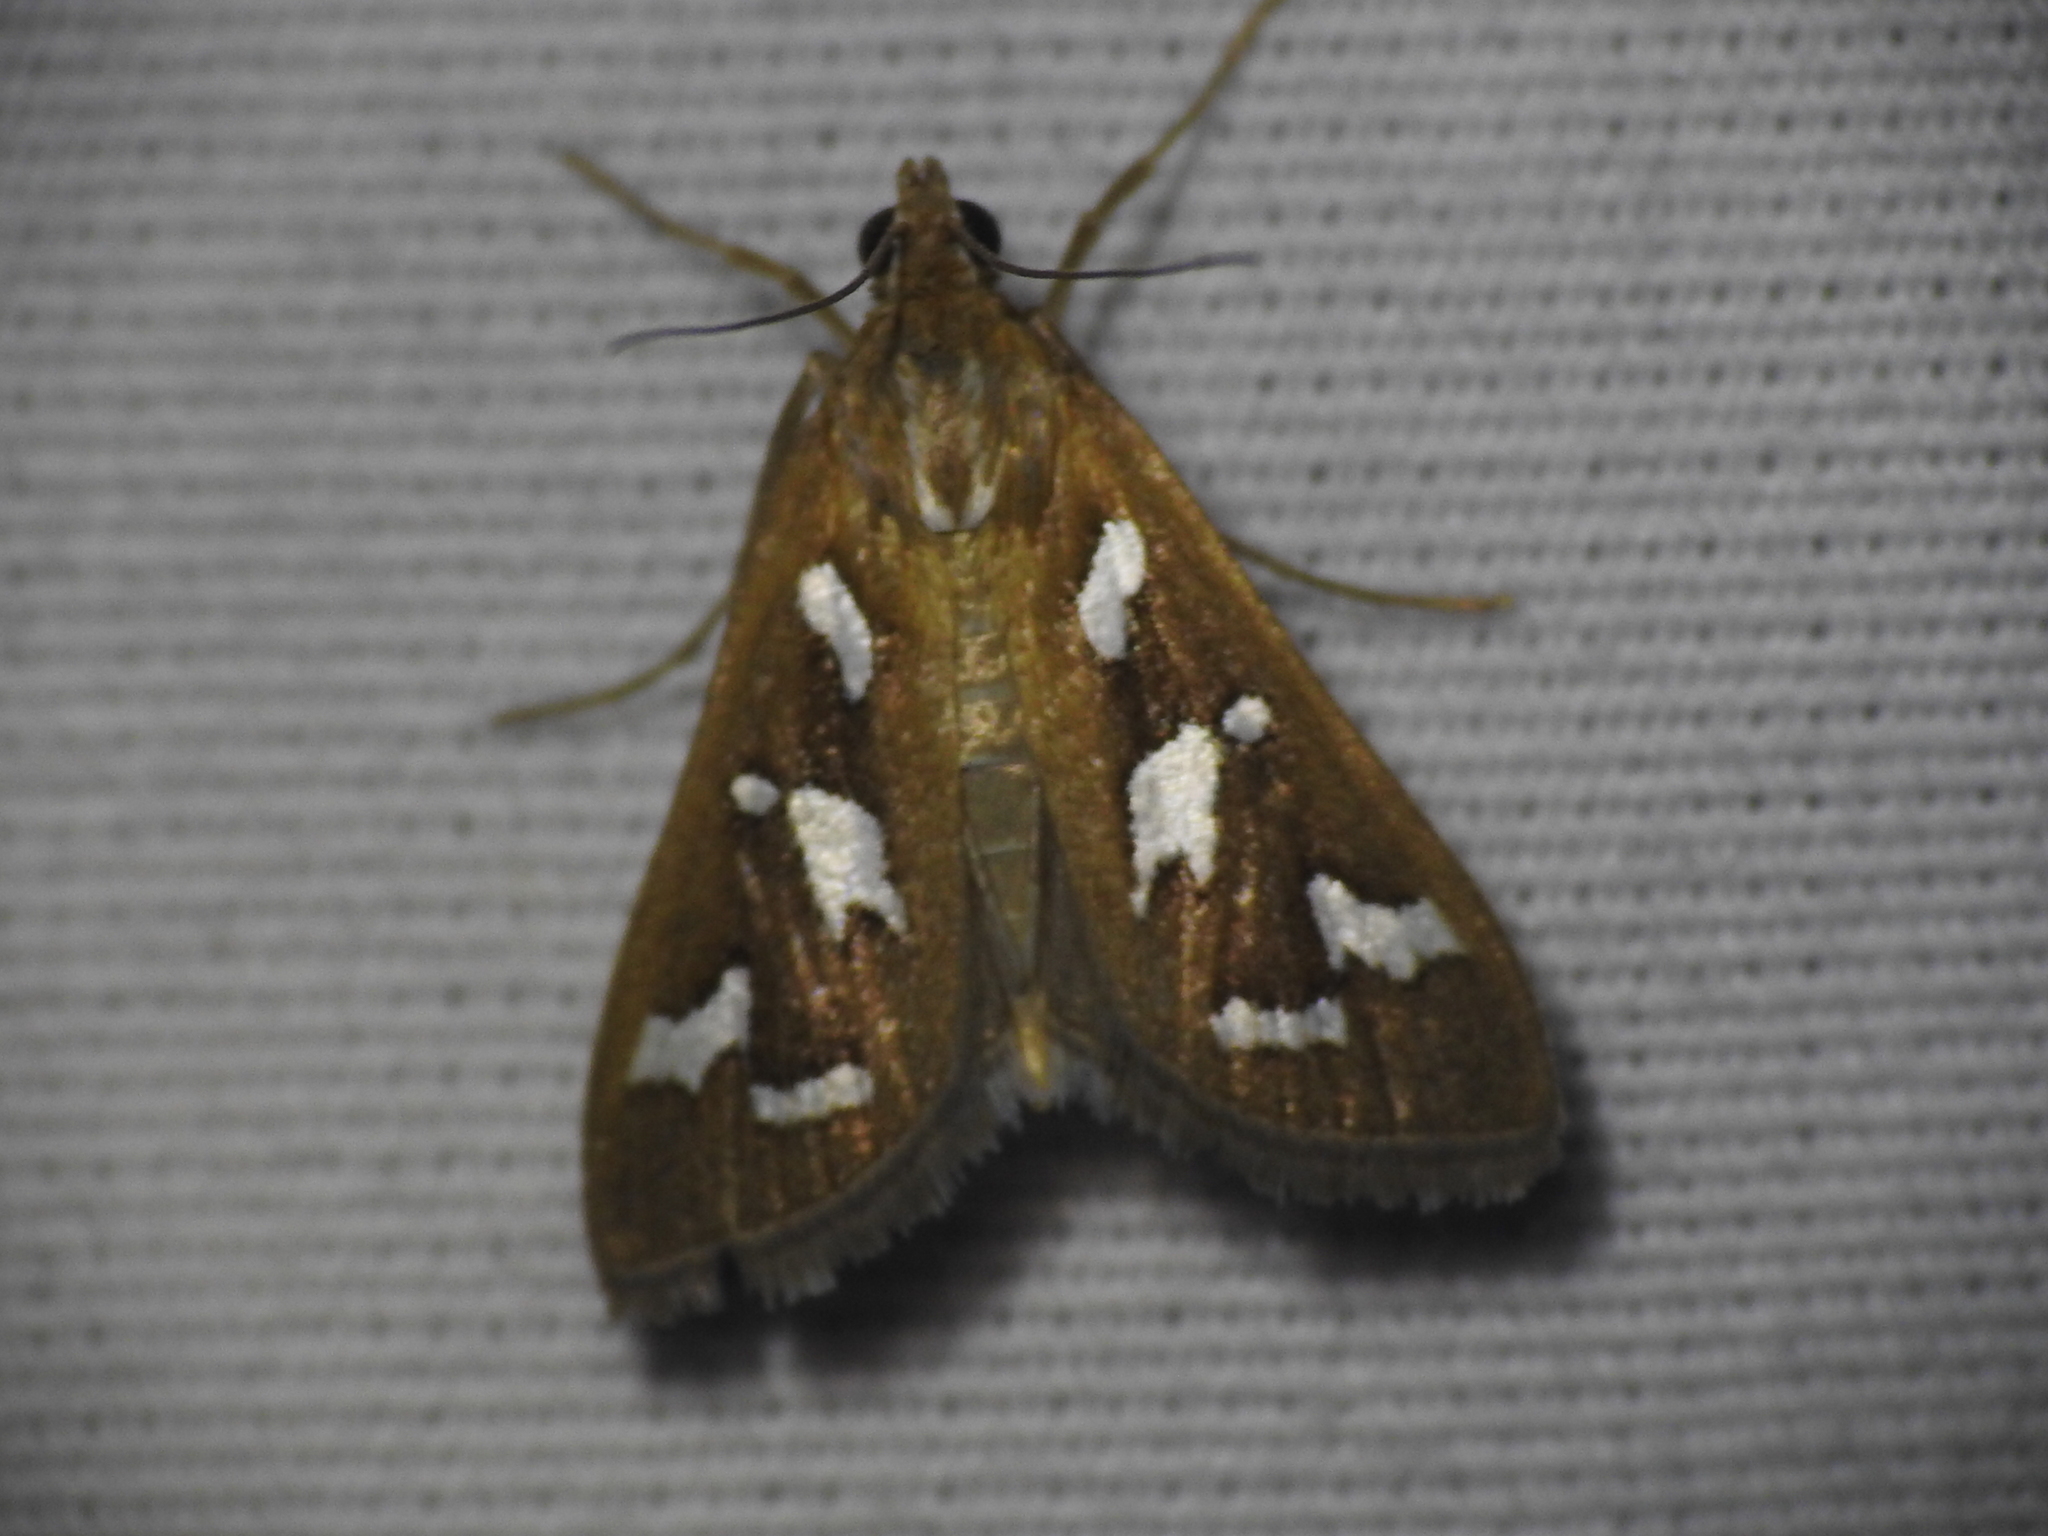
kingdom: Animalia
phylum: Arthropoda
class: Insecta
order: Lepidoptera
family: Crambidae
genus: Diastictis
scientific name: Diastictis fracturalis
